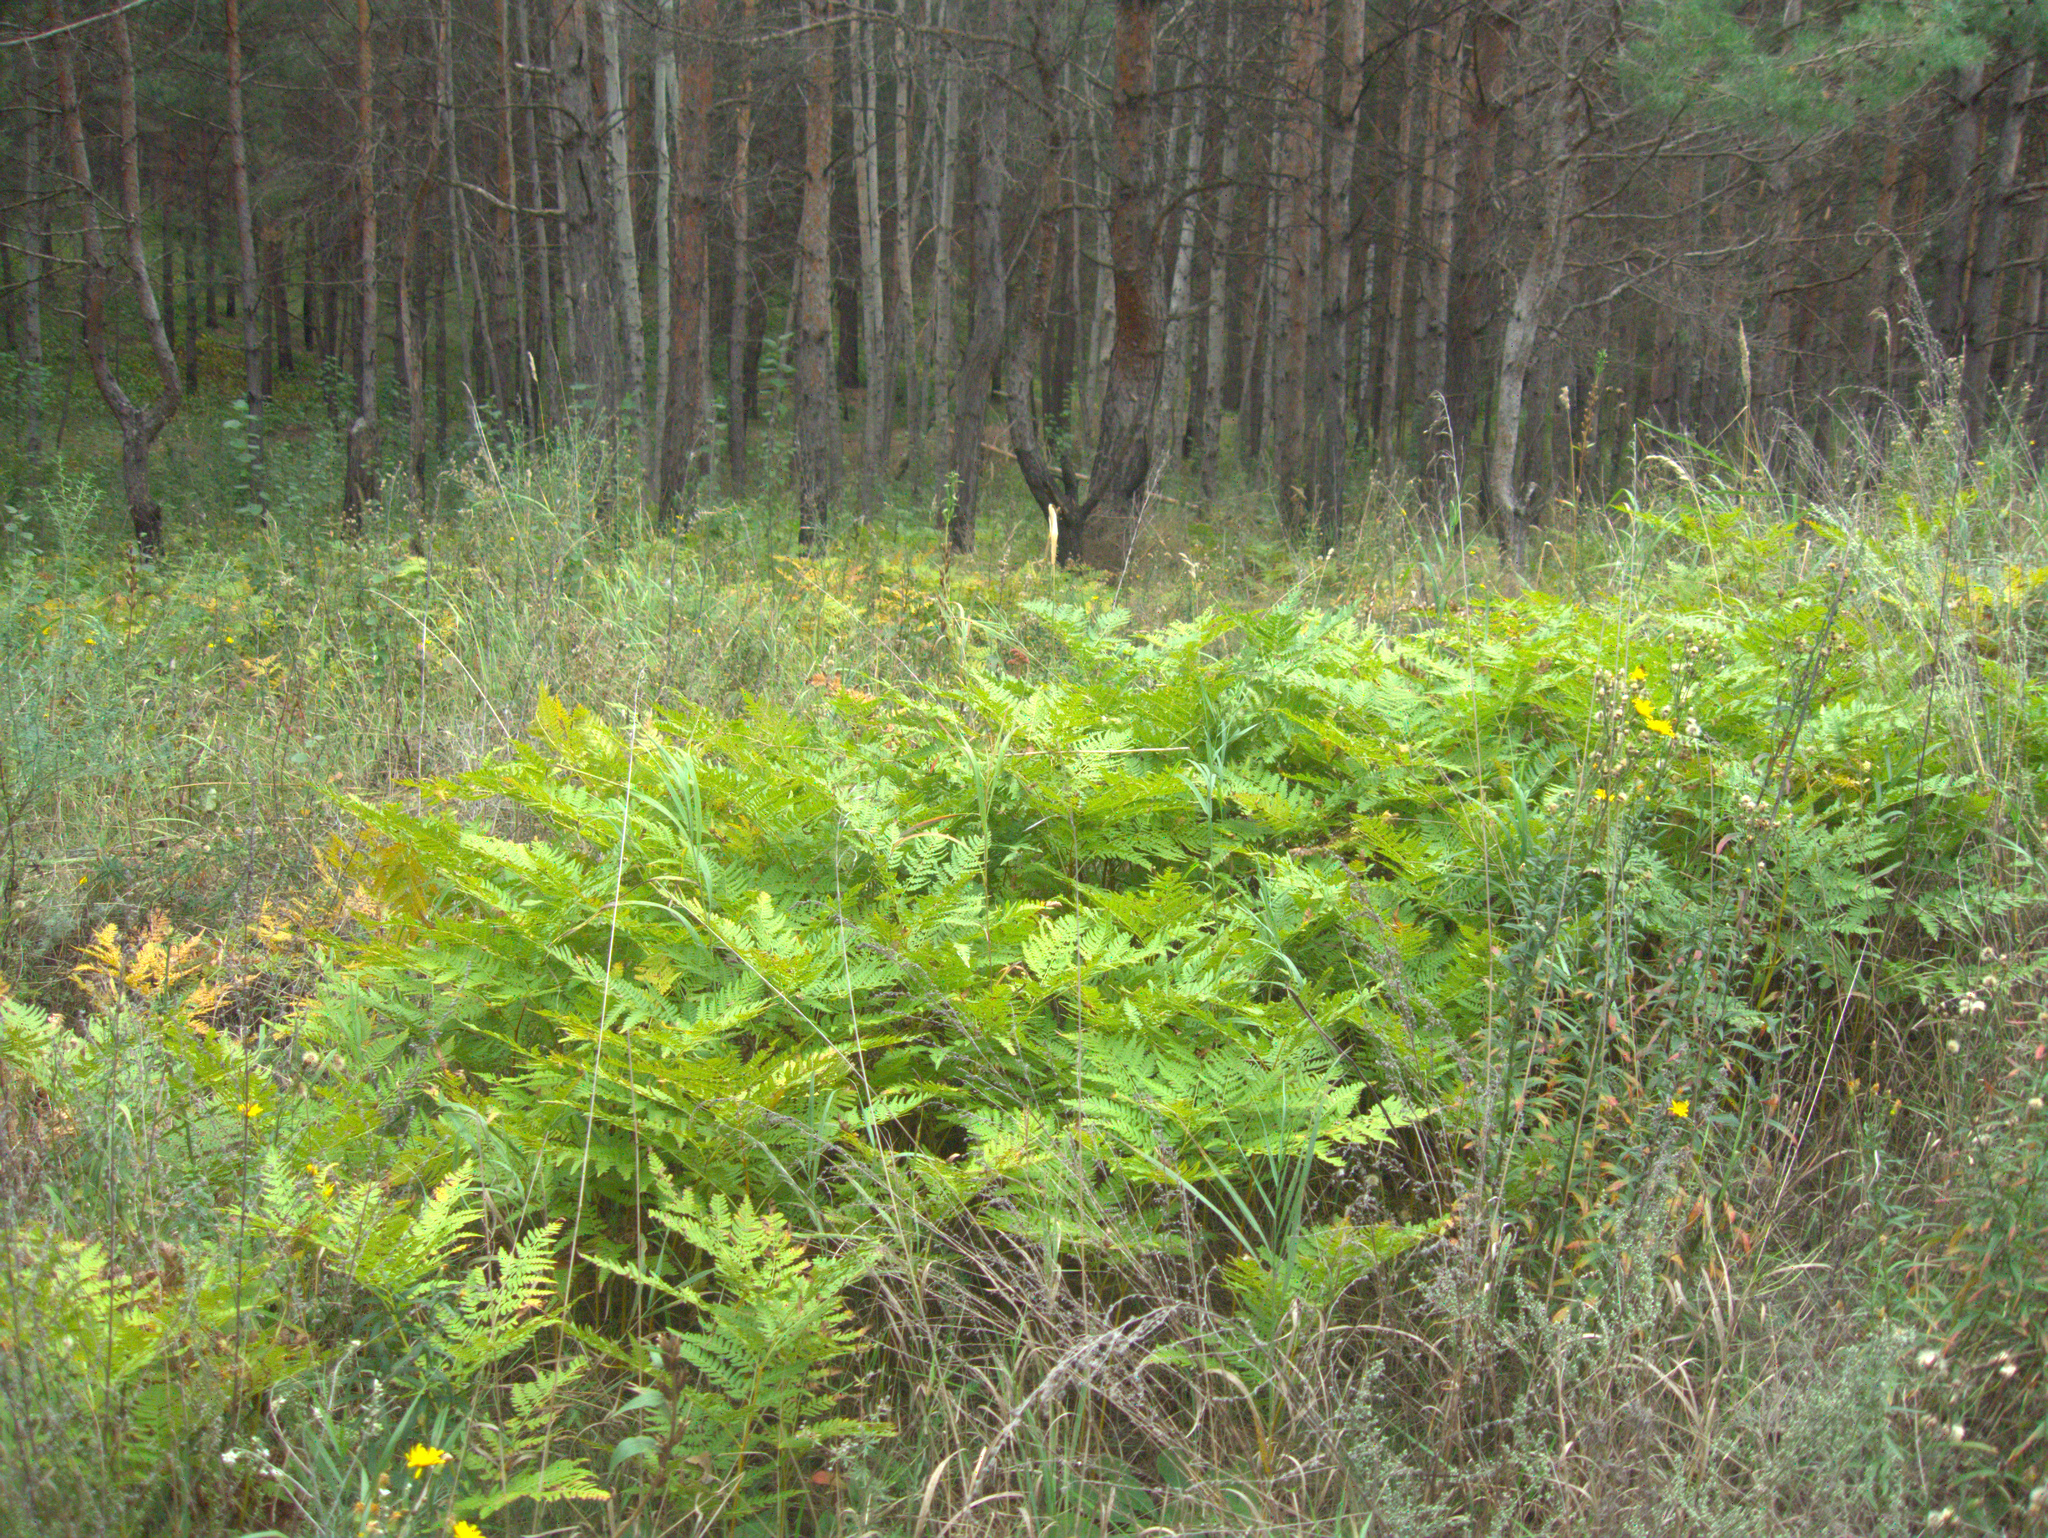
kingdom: Plantae
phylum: Tracheophyta
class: Polypodiopsida
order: Polypodiales
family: Dennstaedtiaceae
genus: Pteridium
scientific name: Pteridium aquilinum
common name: Bracken
